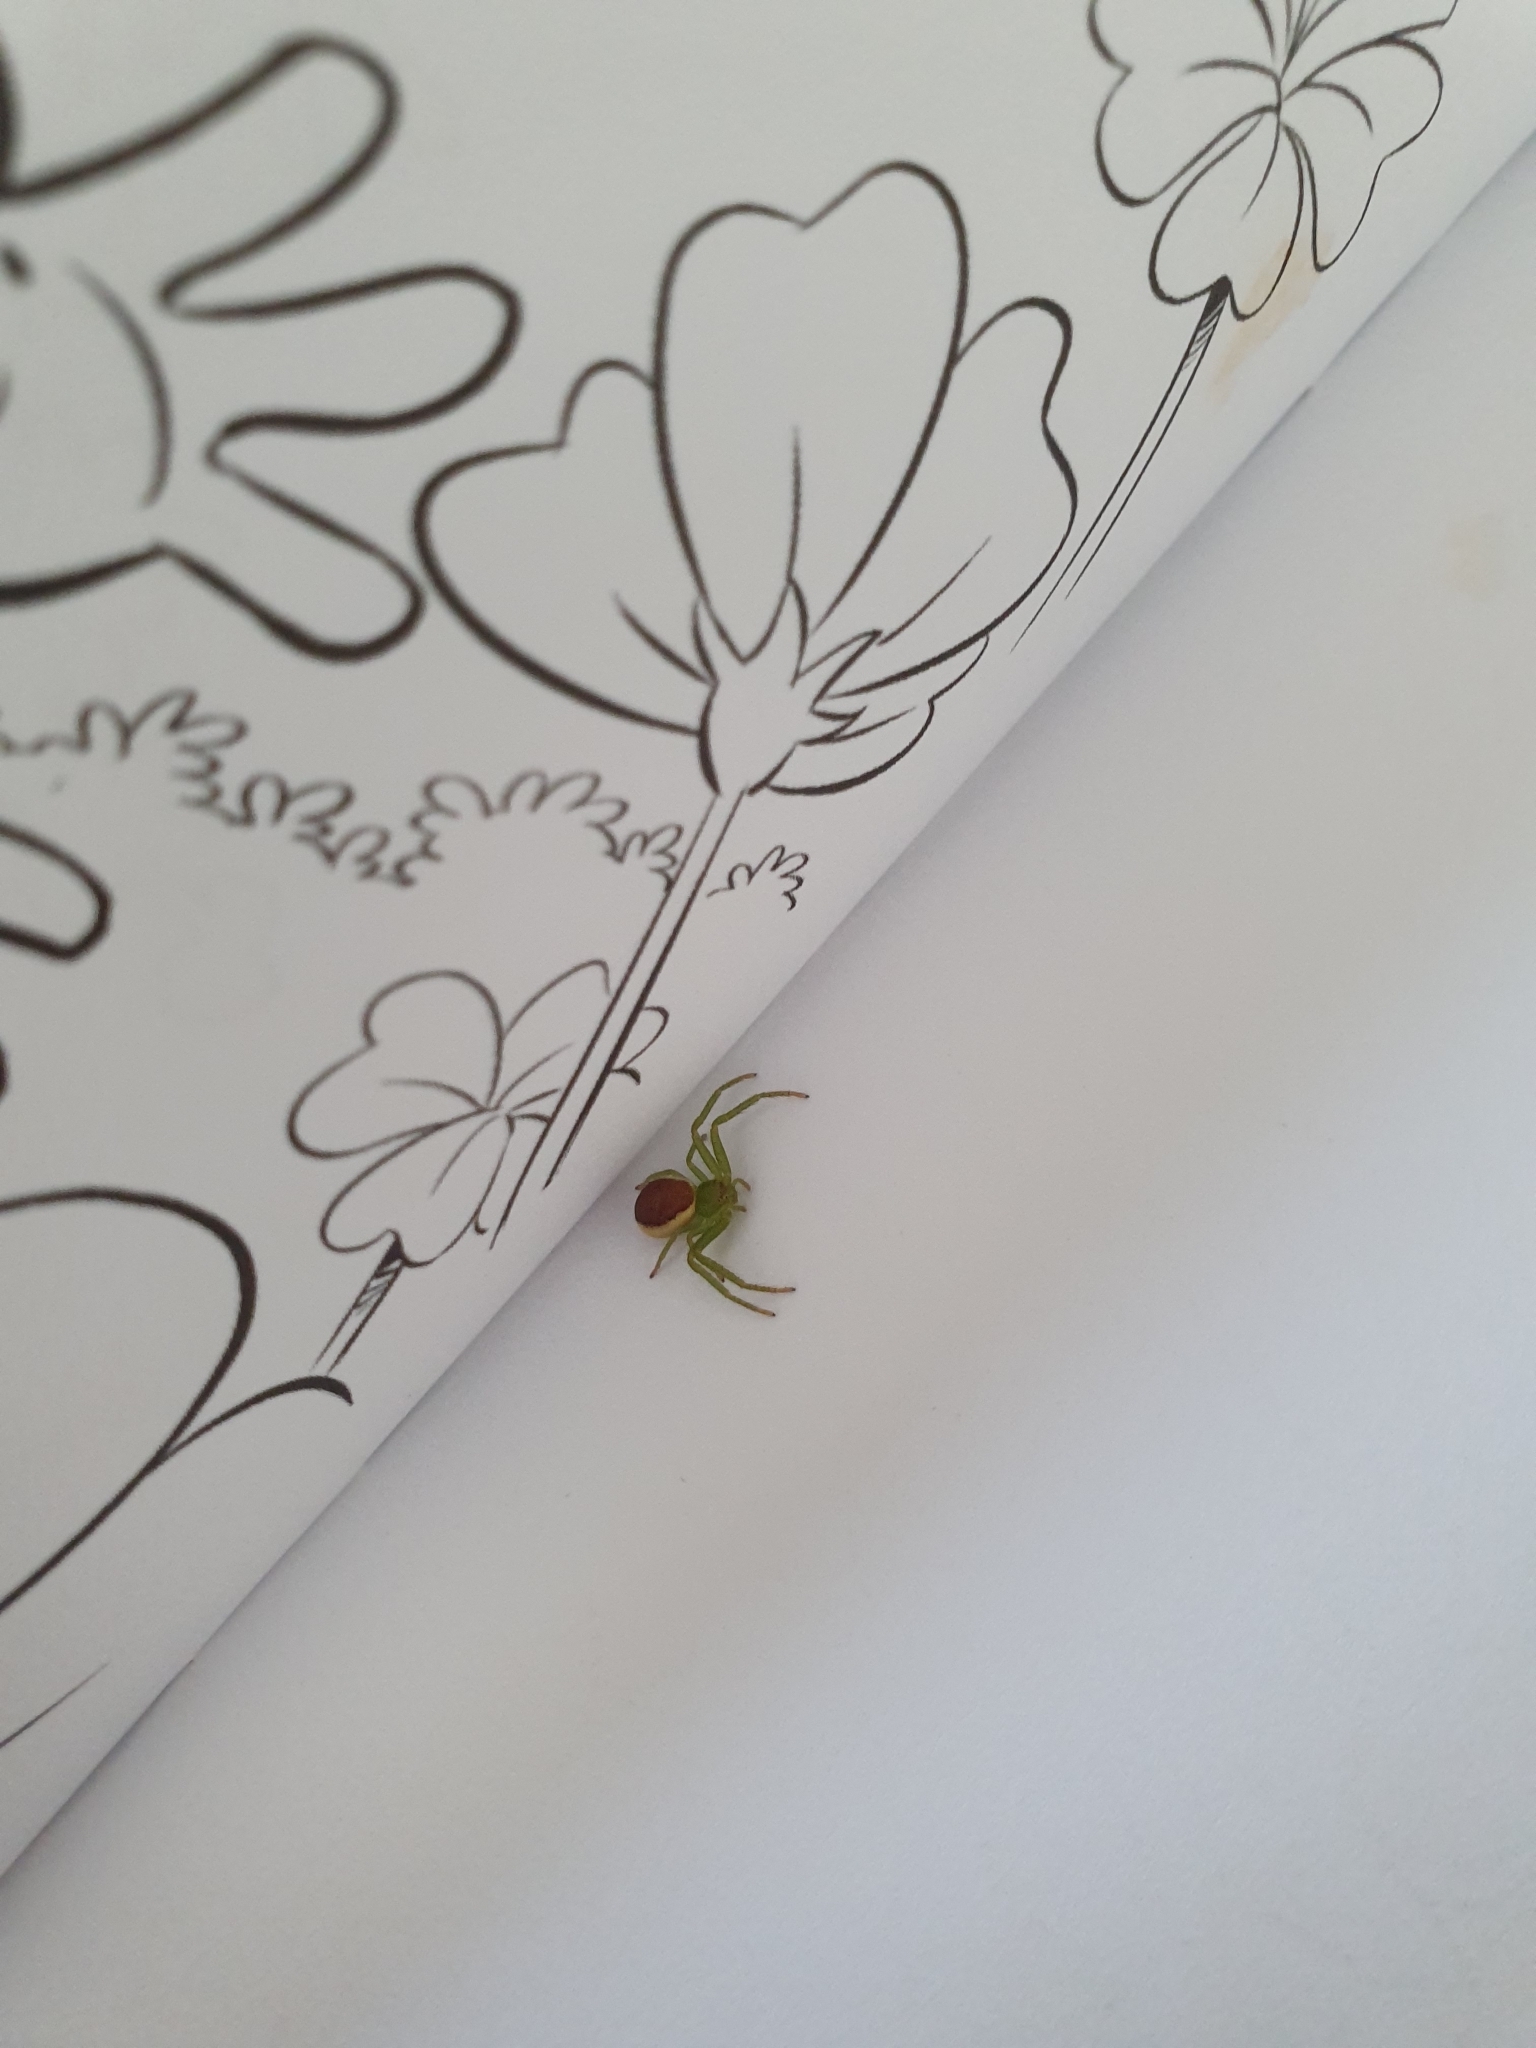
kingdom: Animalia
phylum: Arthropoda
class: Arachnida
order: Araneae
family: Thomisidae
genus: Diaea
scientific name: Diaea dorsata
